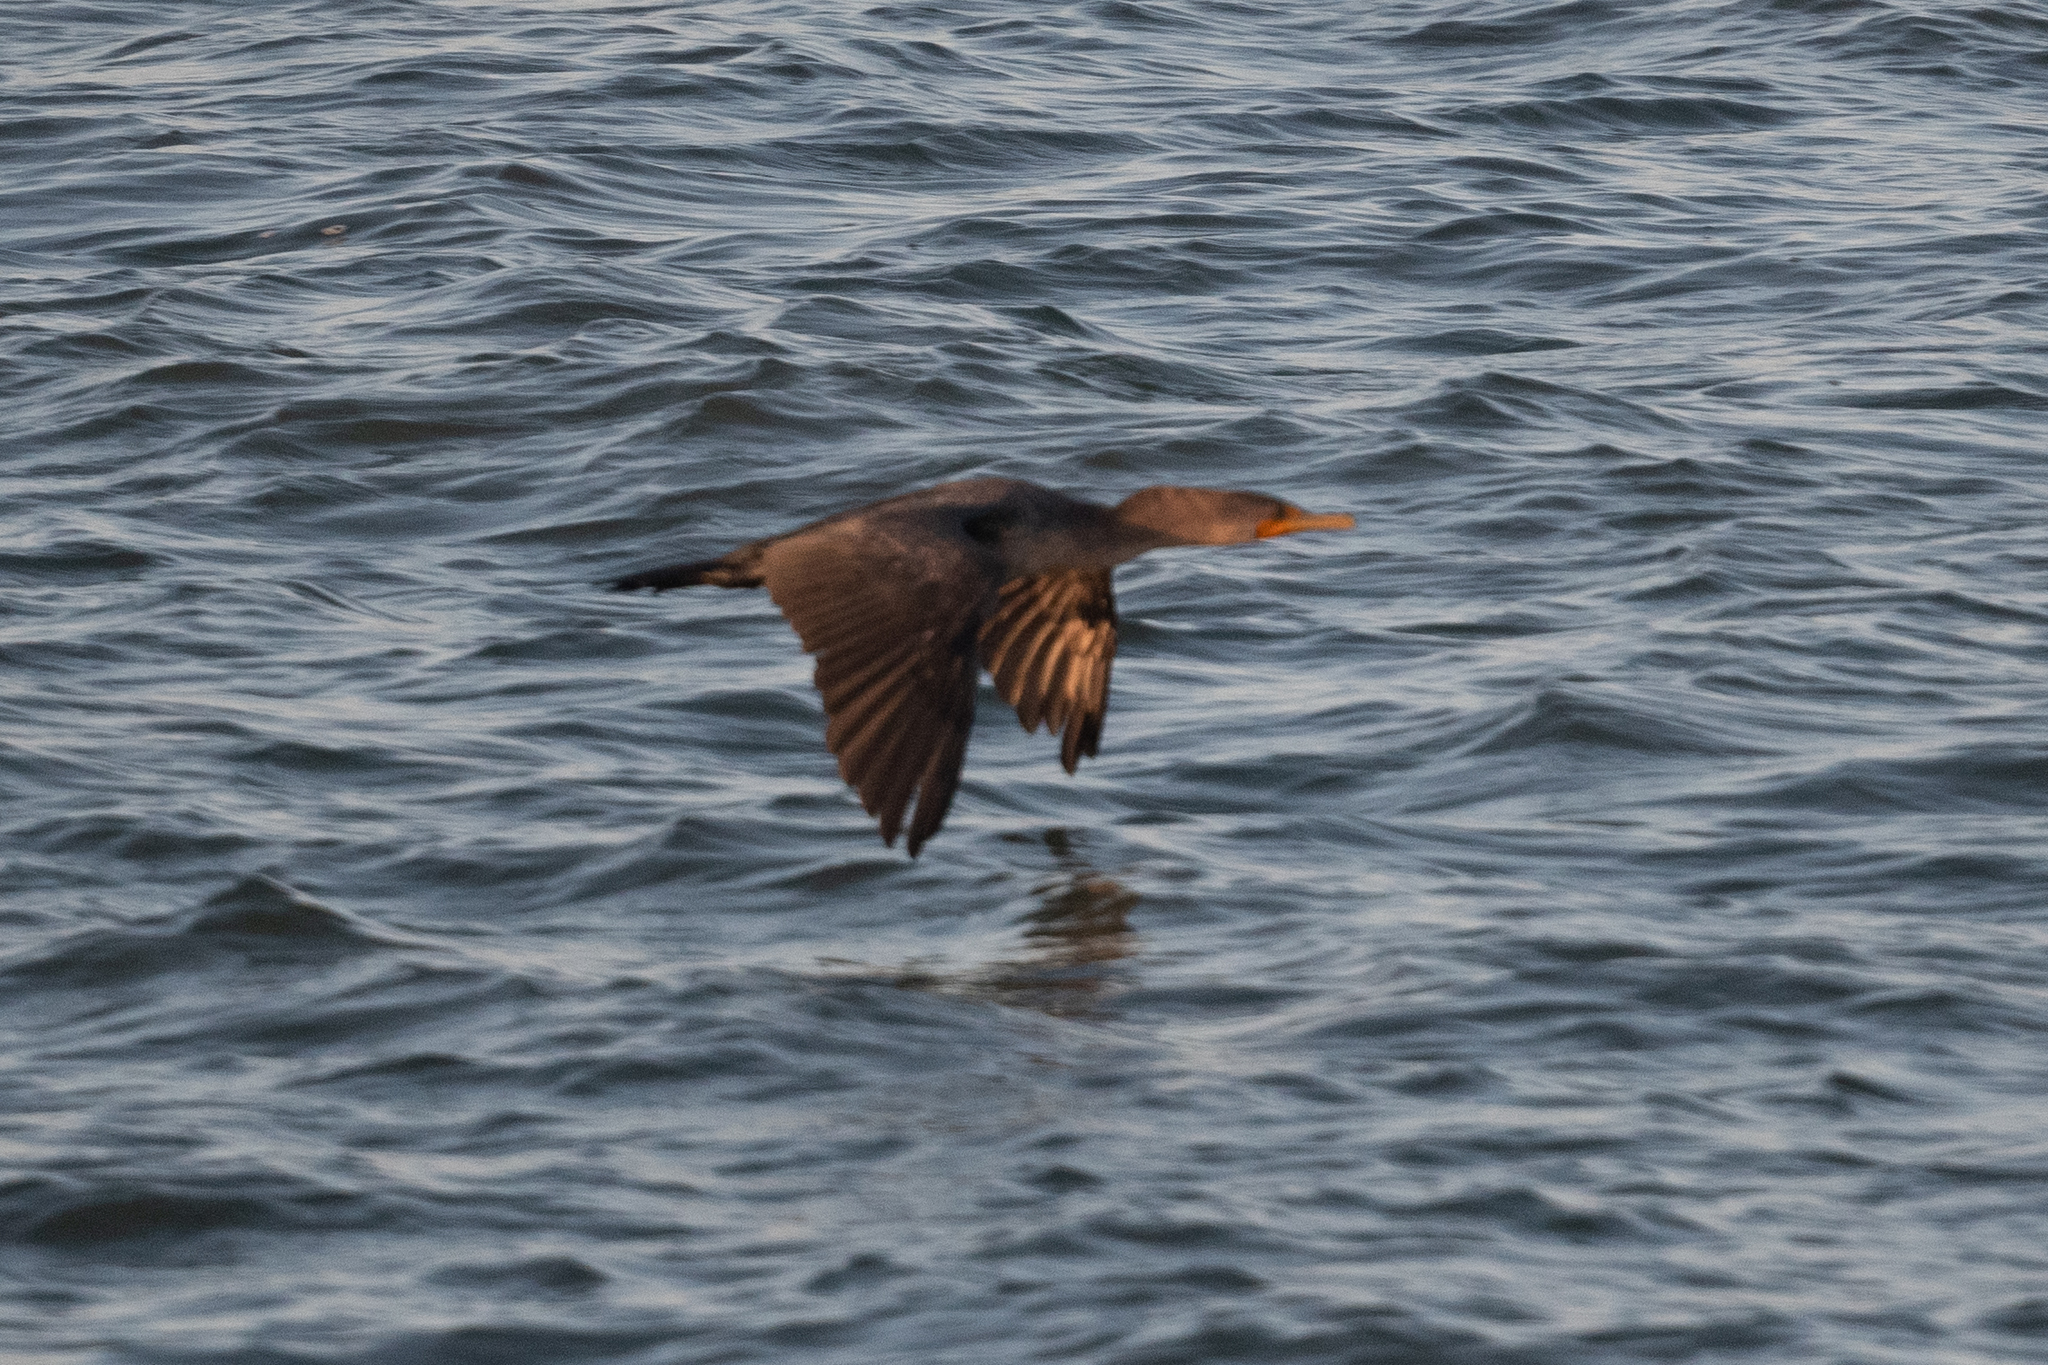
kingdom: Animalia
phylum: Chordata
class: Aves
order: Suliformes
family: Phalacrocoracidae
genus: Phalacrocorax
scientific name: Phalacrocorax auritus
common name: Double-crested cormorant
